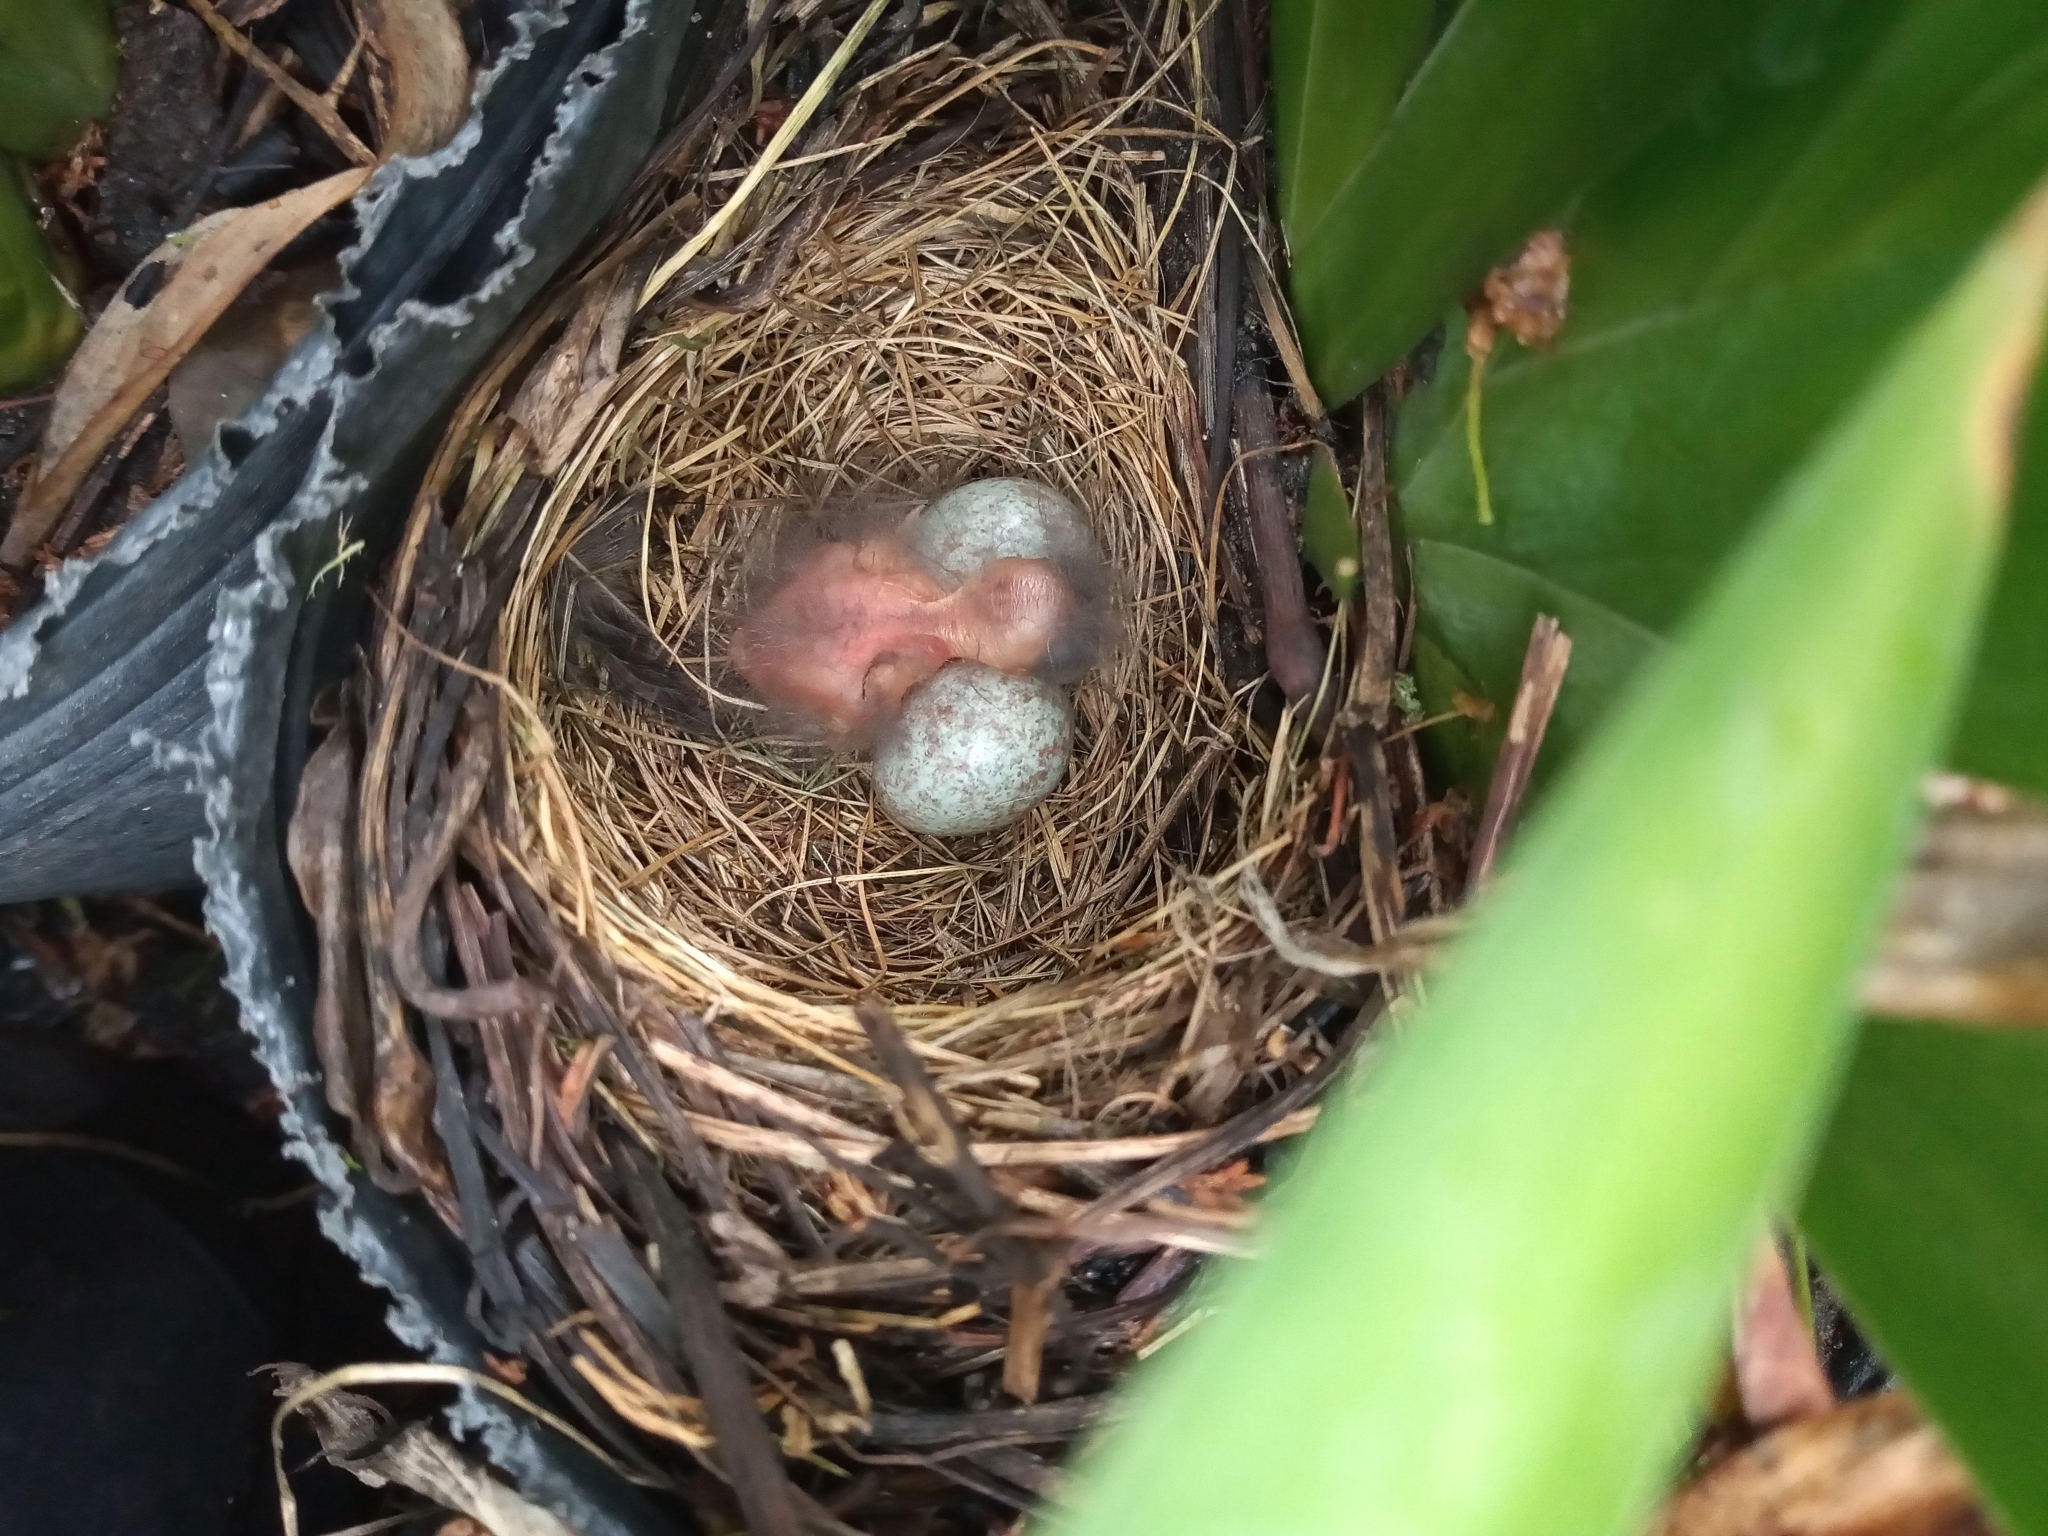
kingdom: Animalia
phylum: Chordata
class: Aves
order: Passeriformes
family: Passerellidae
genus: Zonotrichia
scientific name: Zonotrichia capensis
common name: Rufous-collared sparrow
